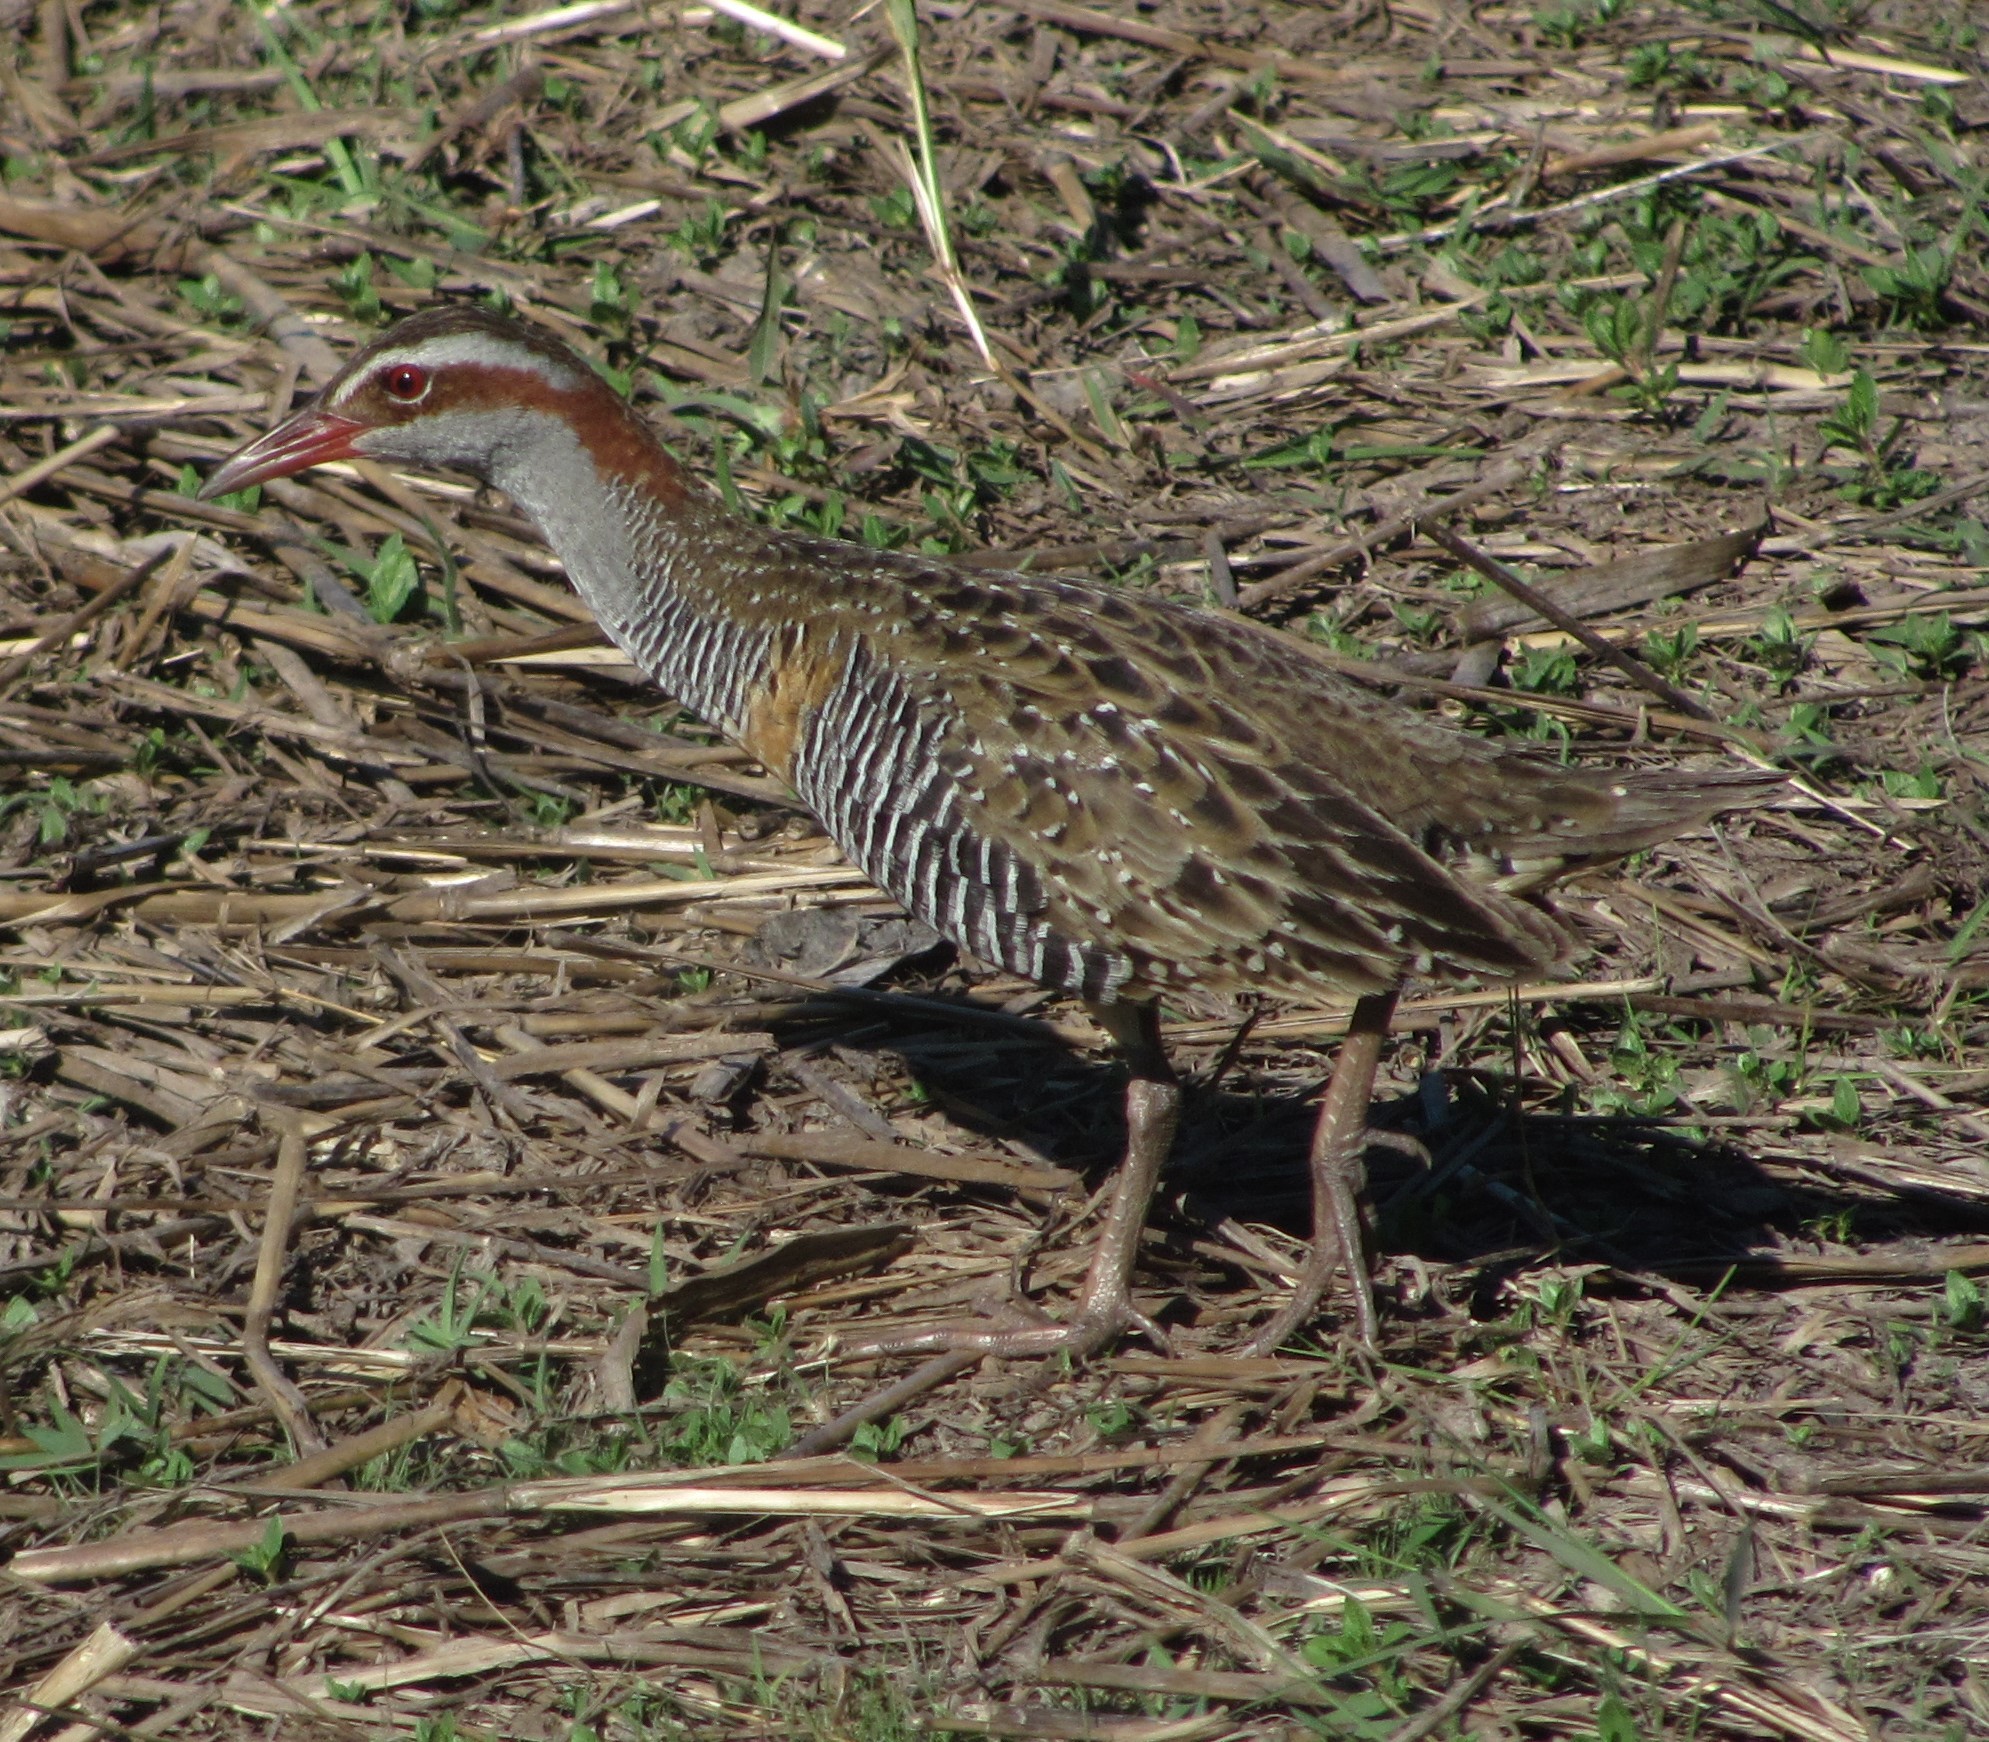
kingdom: Animalia
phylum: Chordata
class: Aves
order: Gruiformes
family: Rallidae
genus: Gallirallus
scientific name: Gallirallus philippensis
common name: Buff-banded rail
